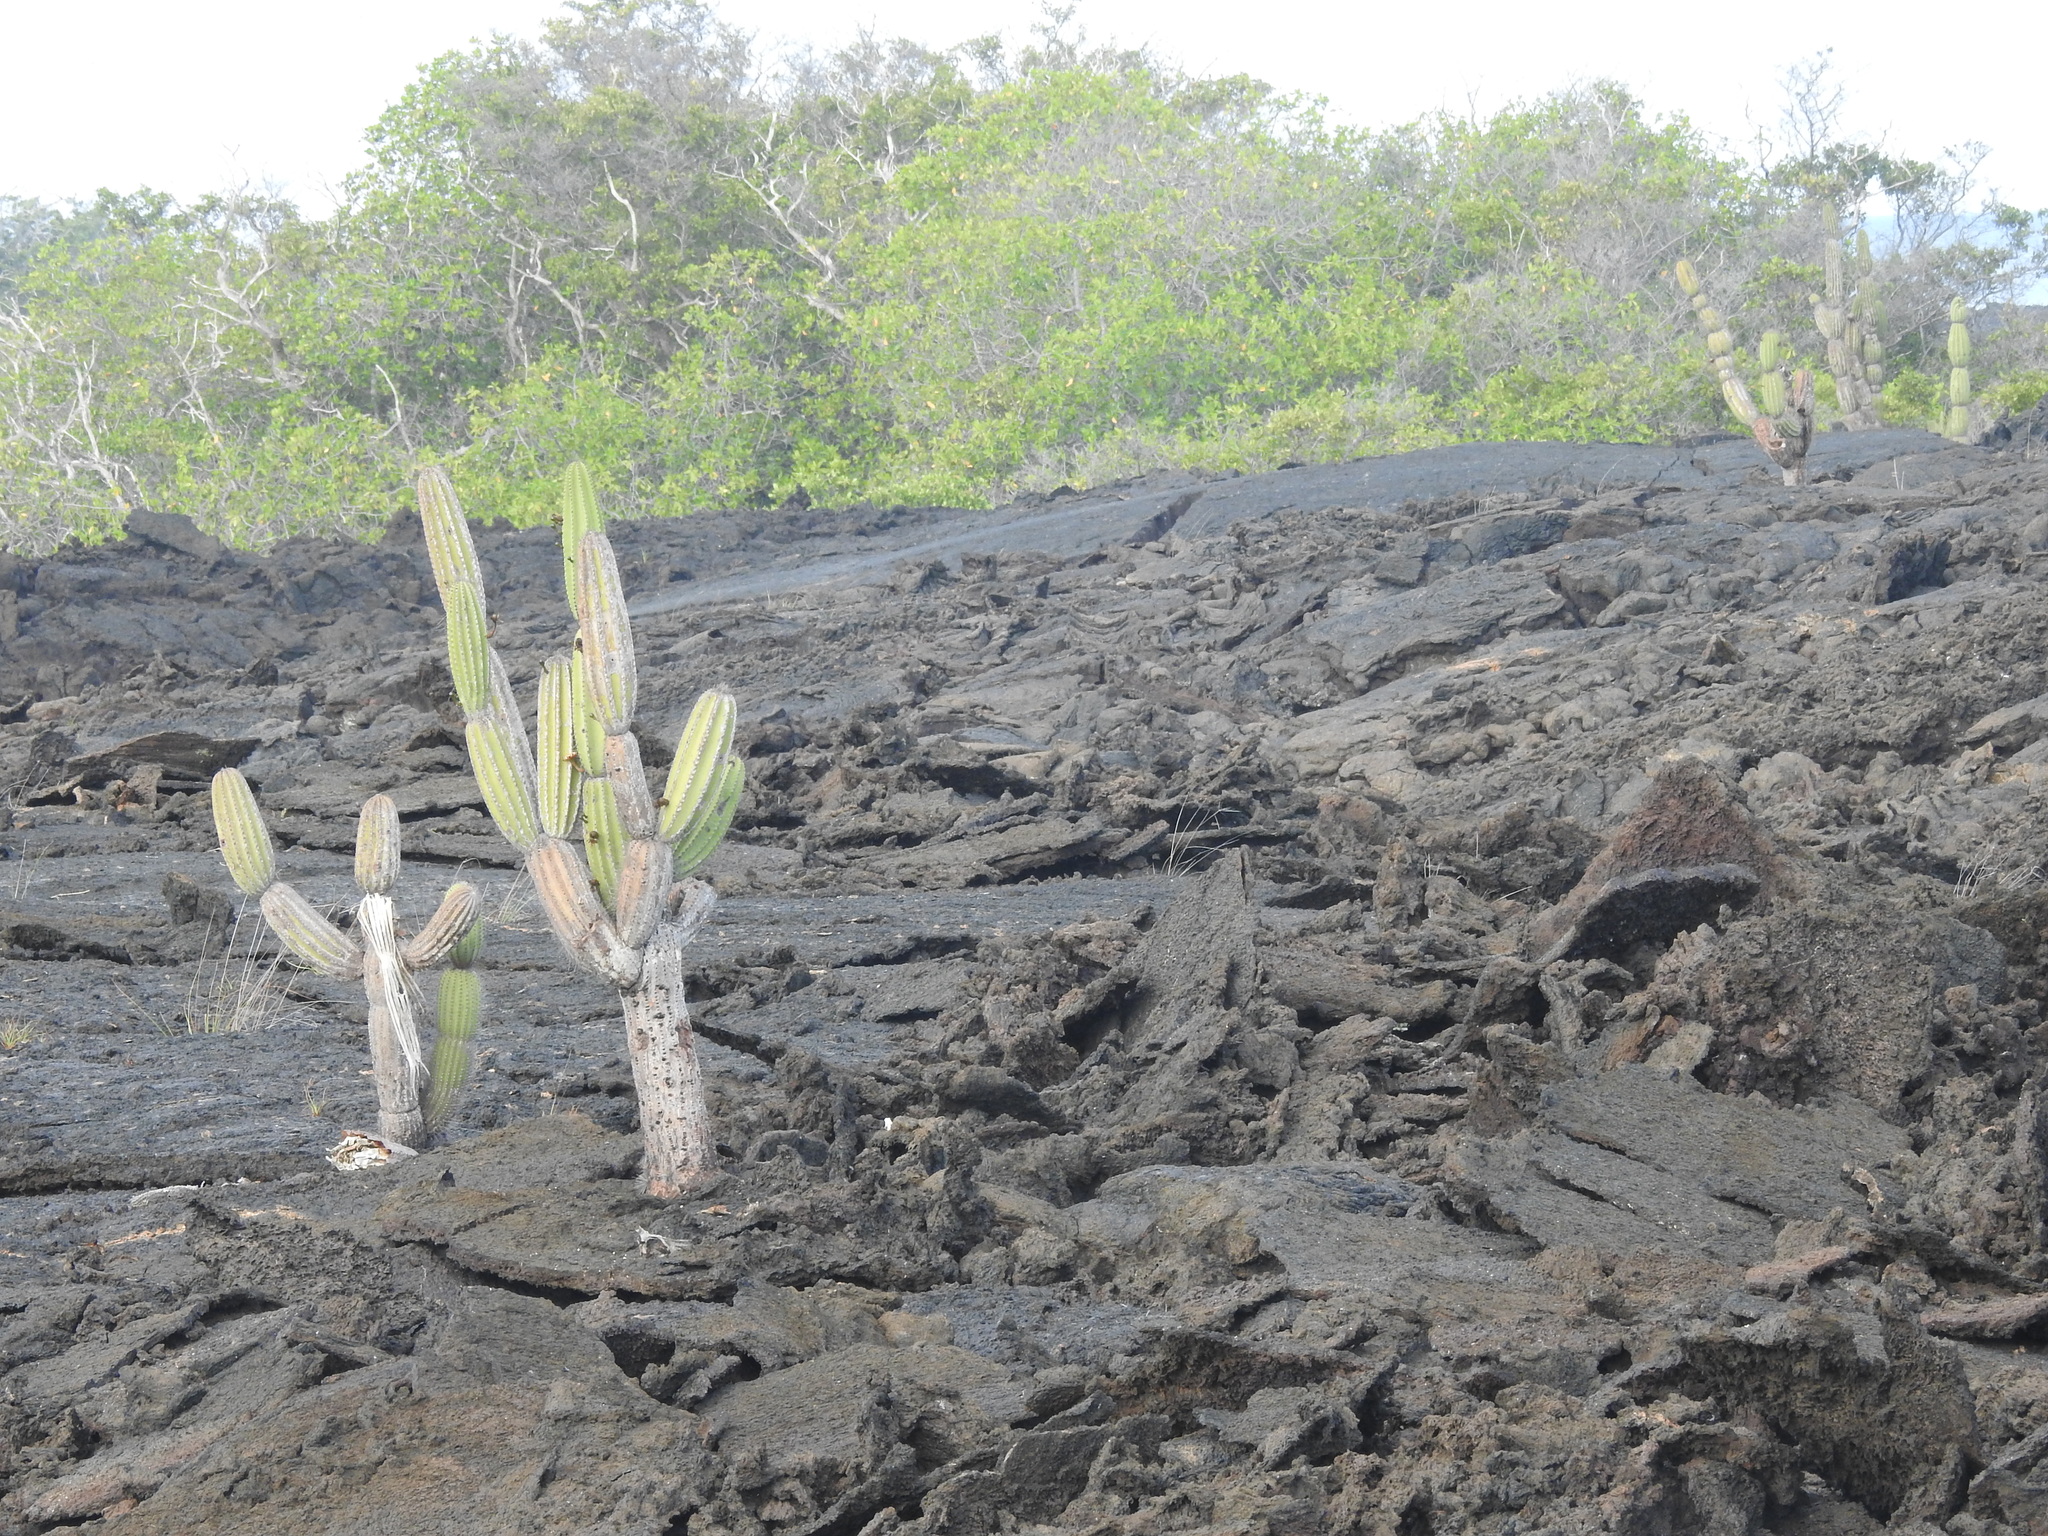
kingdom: Plantae
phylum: Tracheophyta
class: Magnoliopsida
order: Caryophyllales
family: Cactaceae
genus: Jasminocereus
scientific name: Jasminocereus thouarsii
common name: Candelabra cactus
